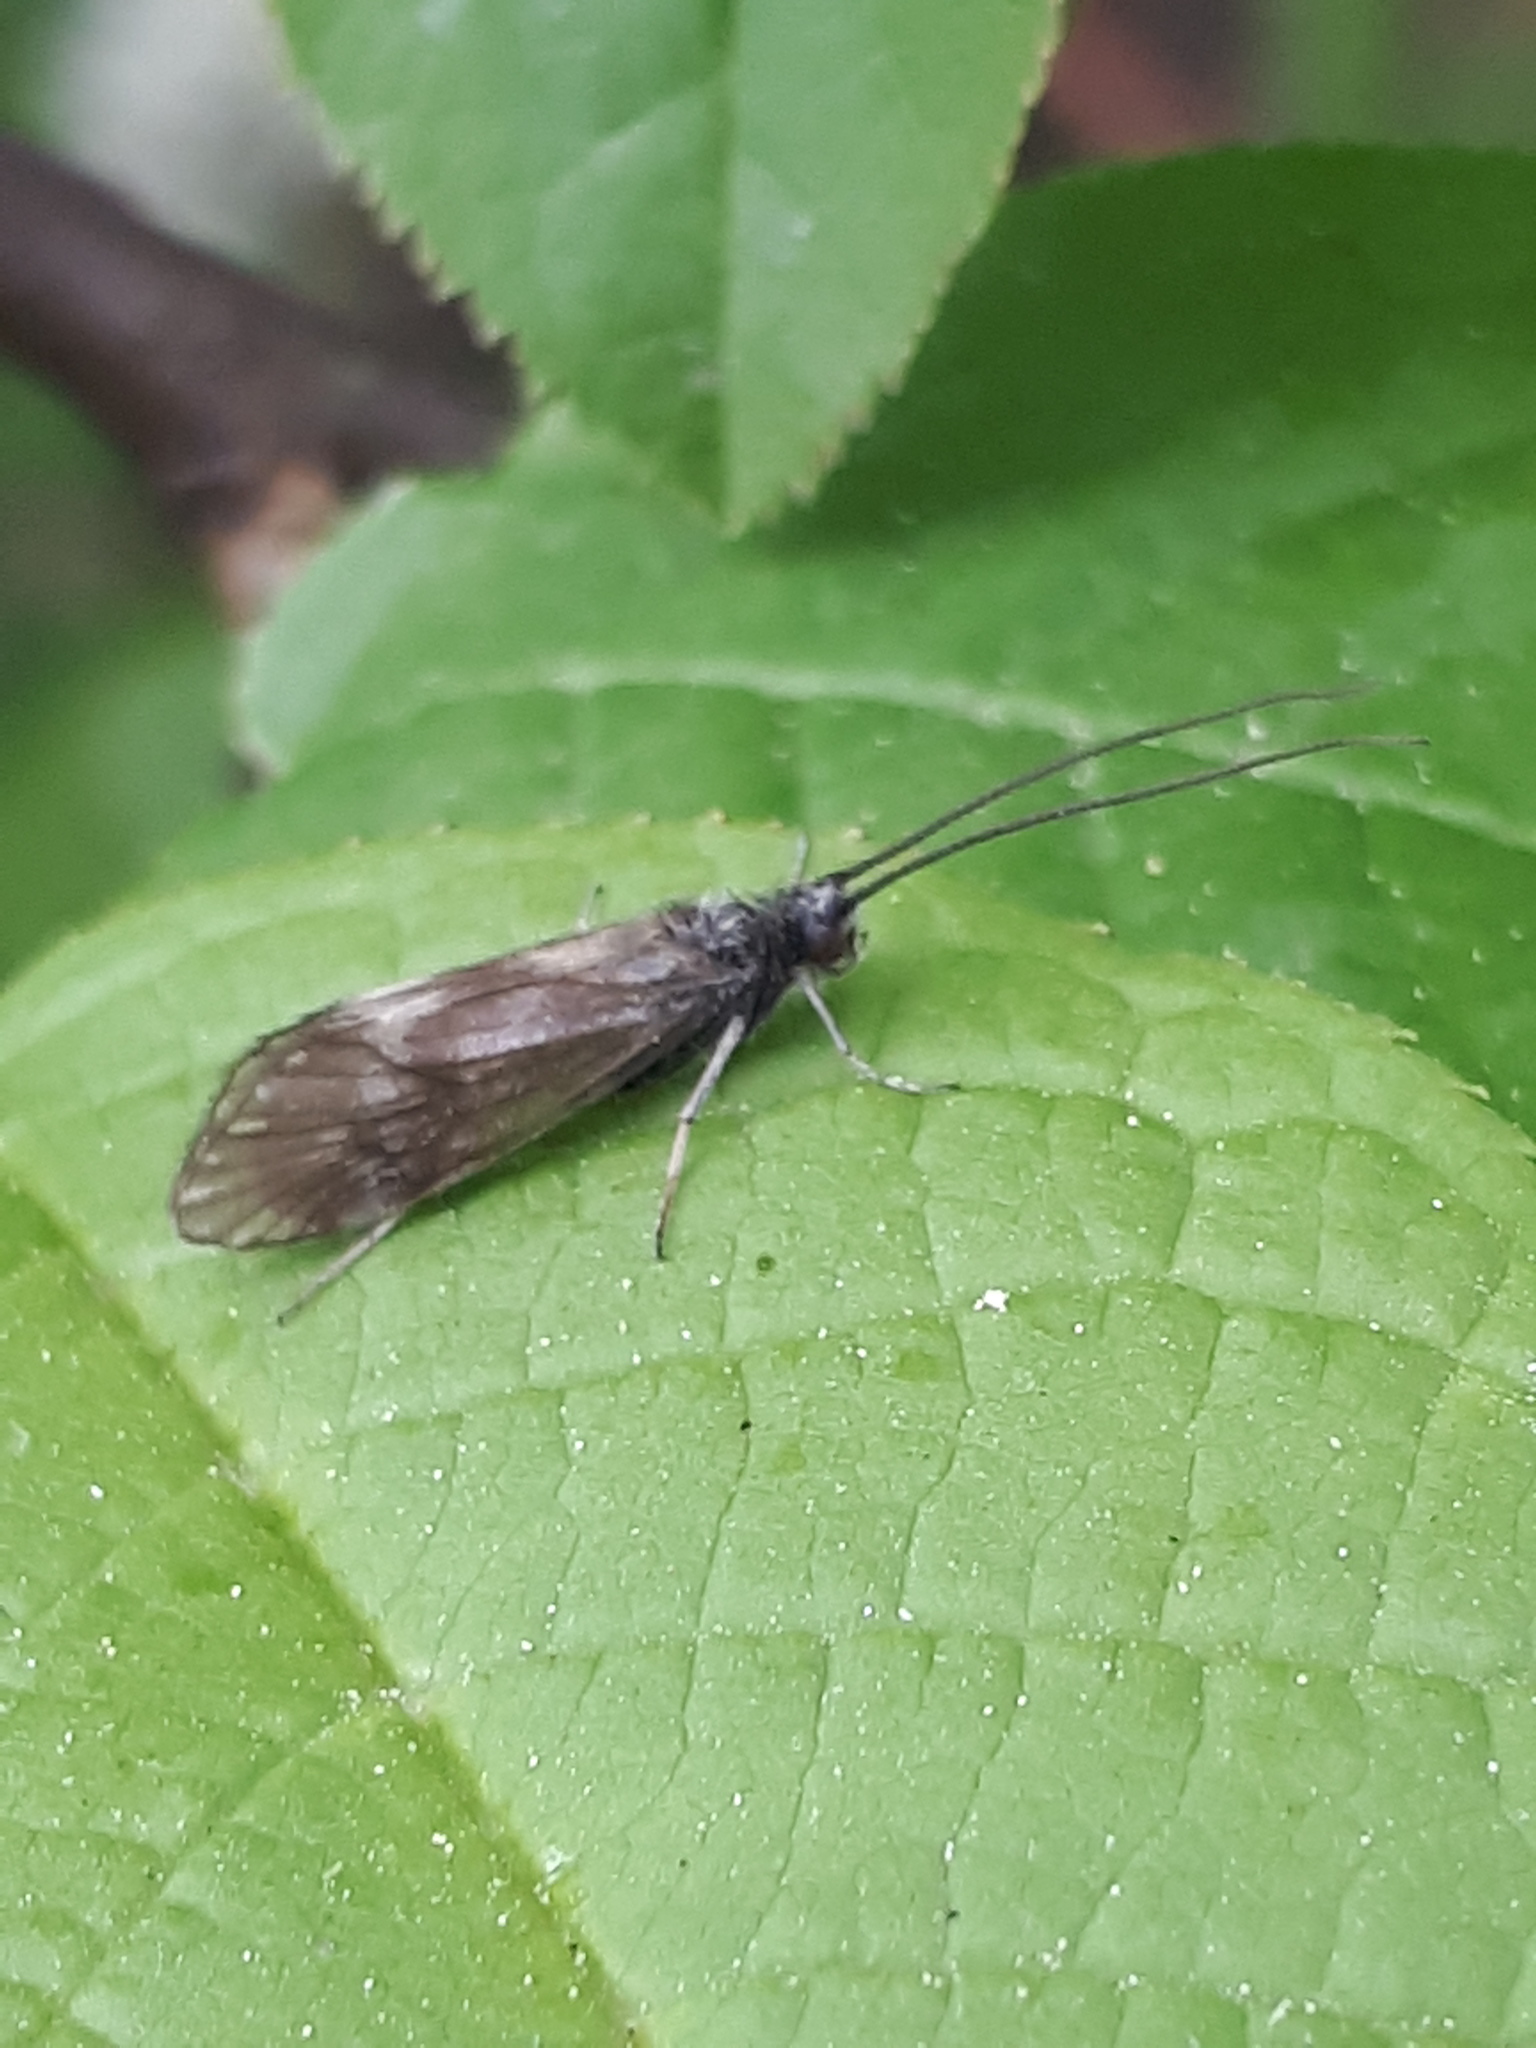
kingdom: Animalia
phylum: Arthropoda
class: Insecta
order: Trichoptera
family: Brachycentridae
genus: Brachycentrus
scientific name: Brachycentrus subnubilis
